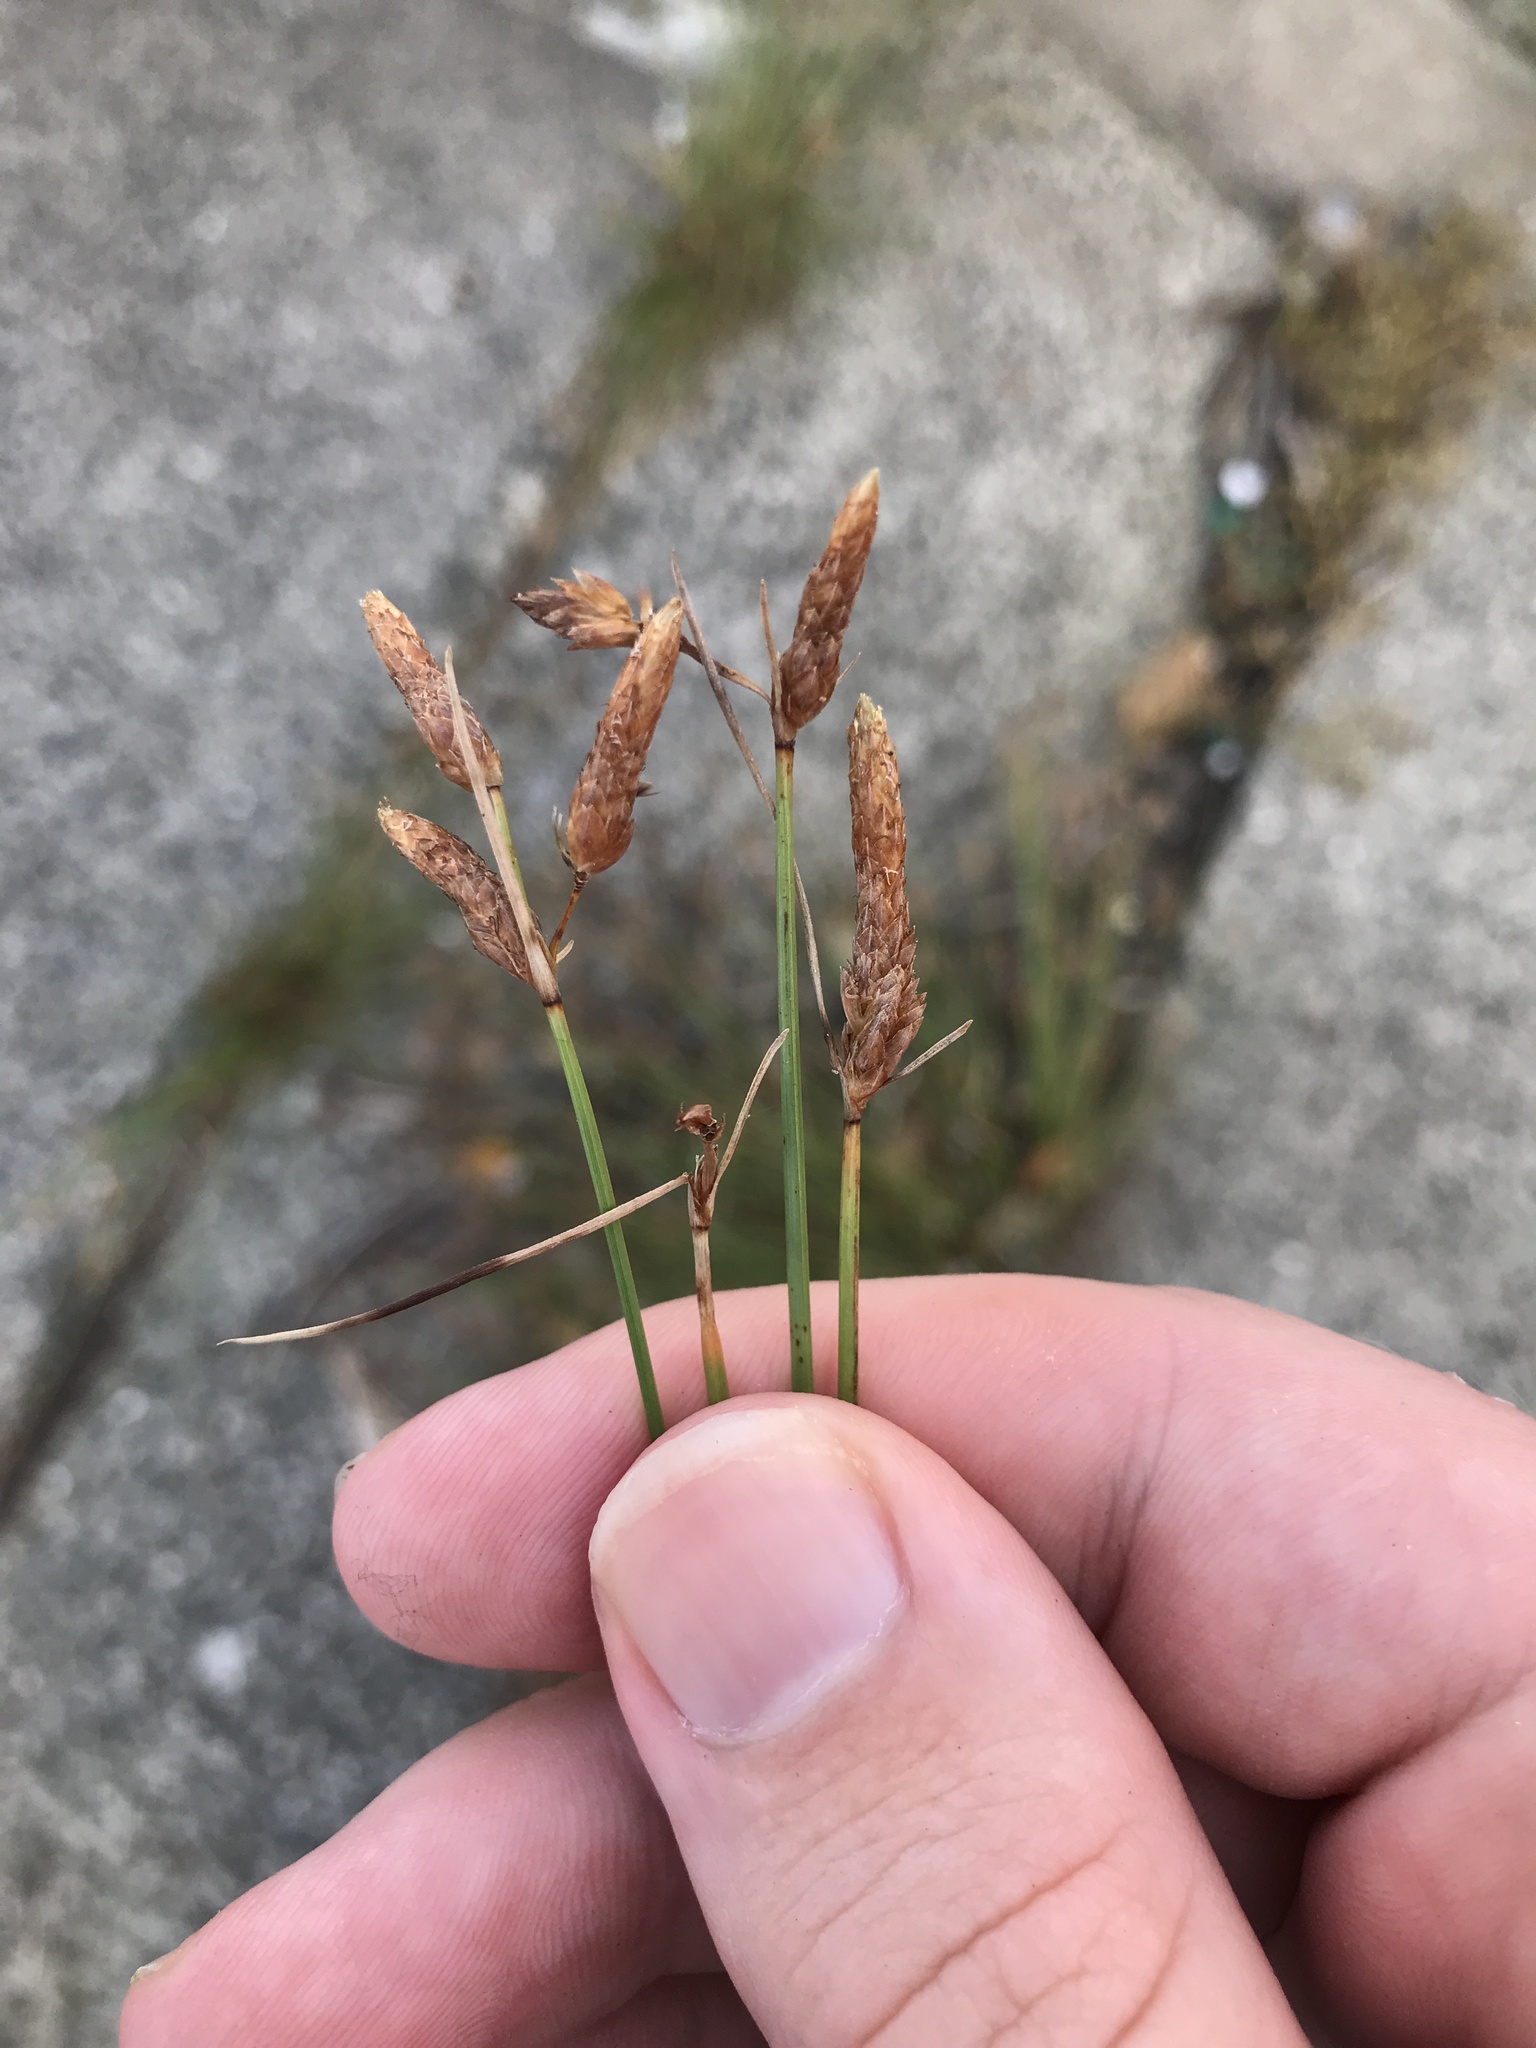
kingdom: Plantae
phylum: Tracheophyta
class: Liliopsida
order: Poales
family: Cyperaceae
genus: Fimbristylis
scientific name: Fimbristylis sieboldii
